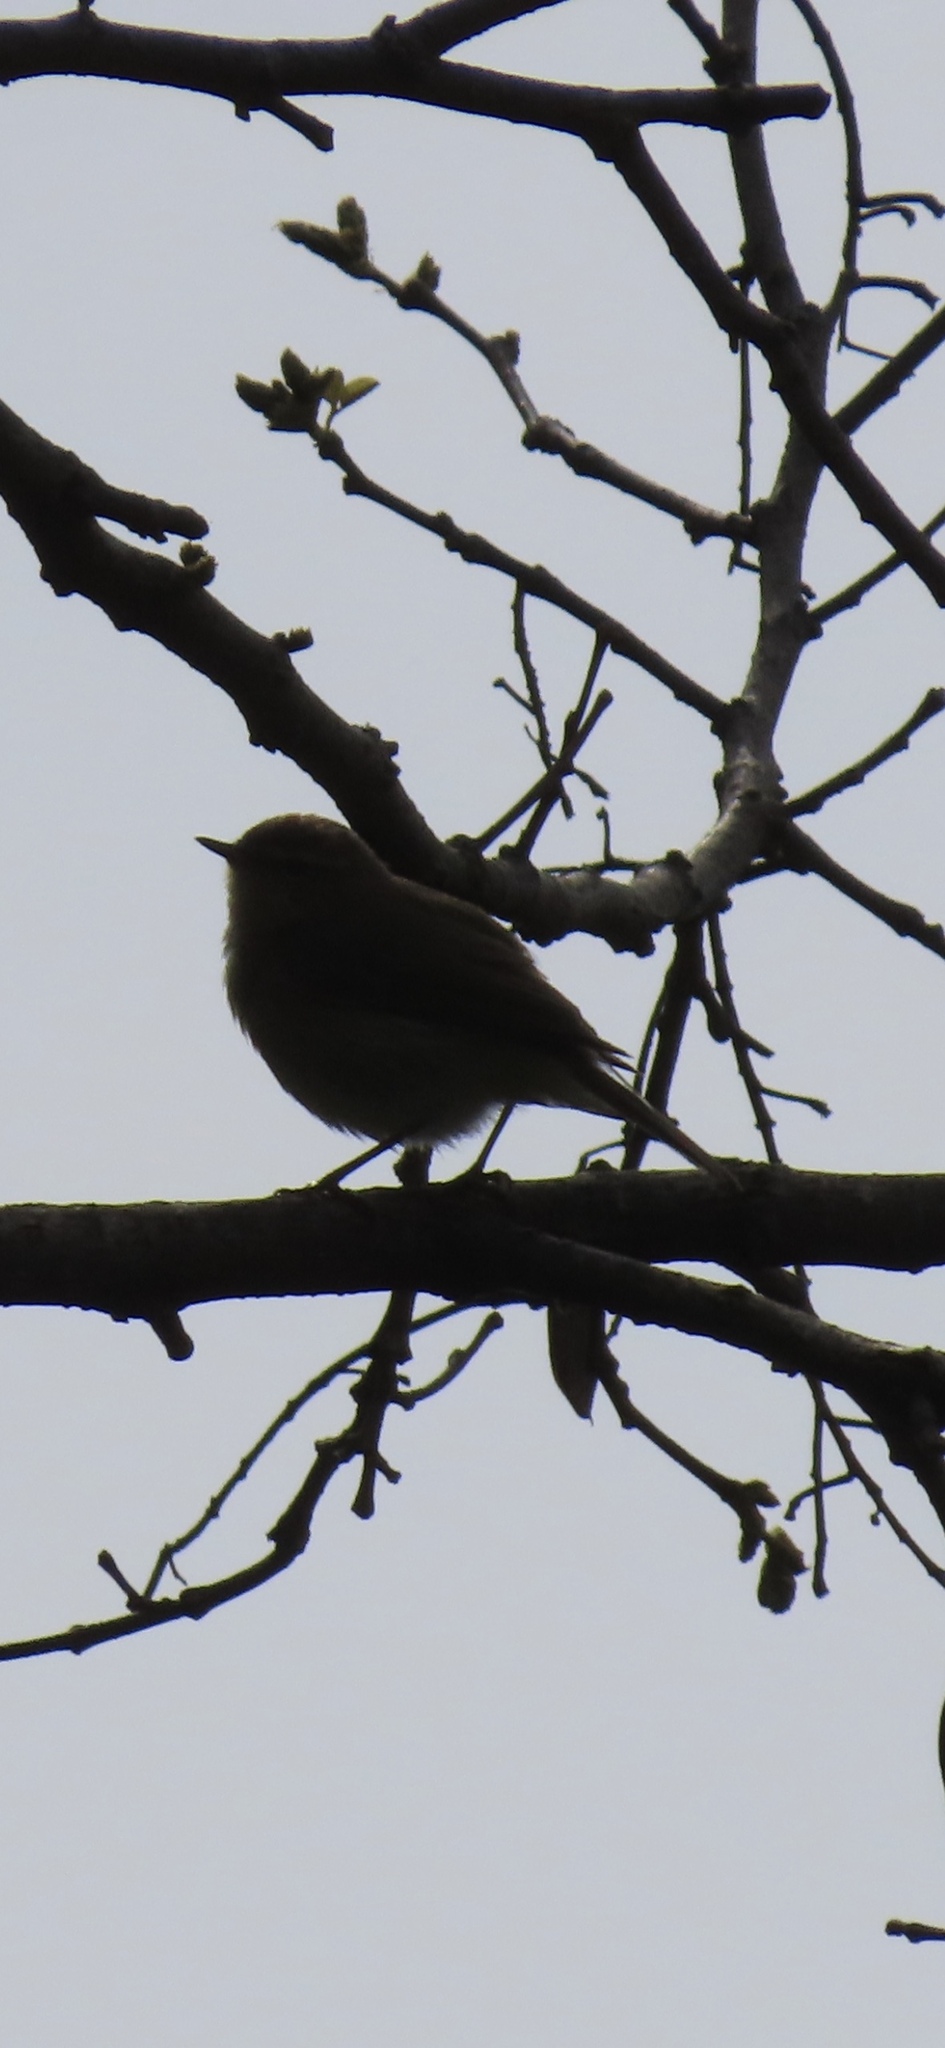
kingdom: Animalia
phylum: Chordata
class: Aves
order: Passeriformes
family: Phylloscopidae
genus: Phylloscopus
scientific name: Phylloscopus collybita
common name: Common chiffchaff
